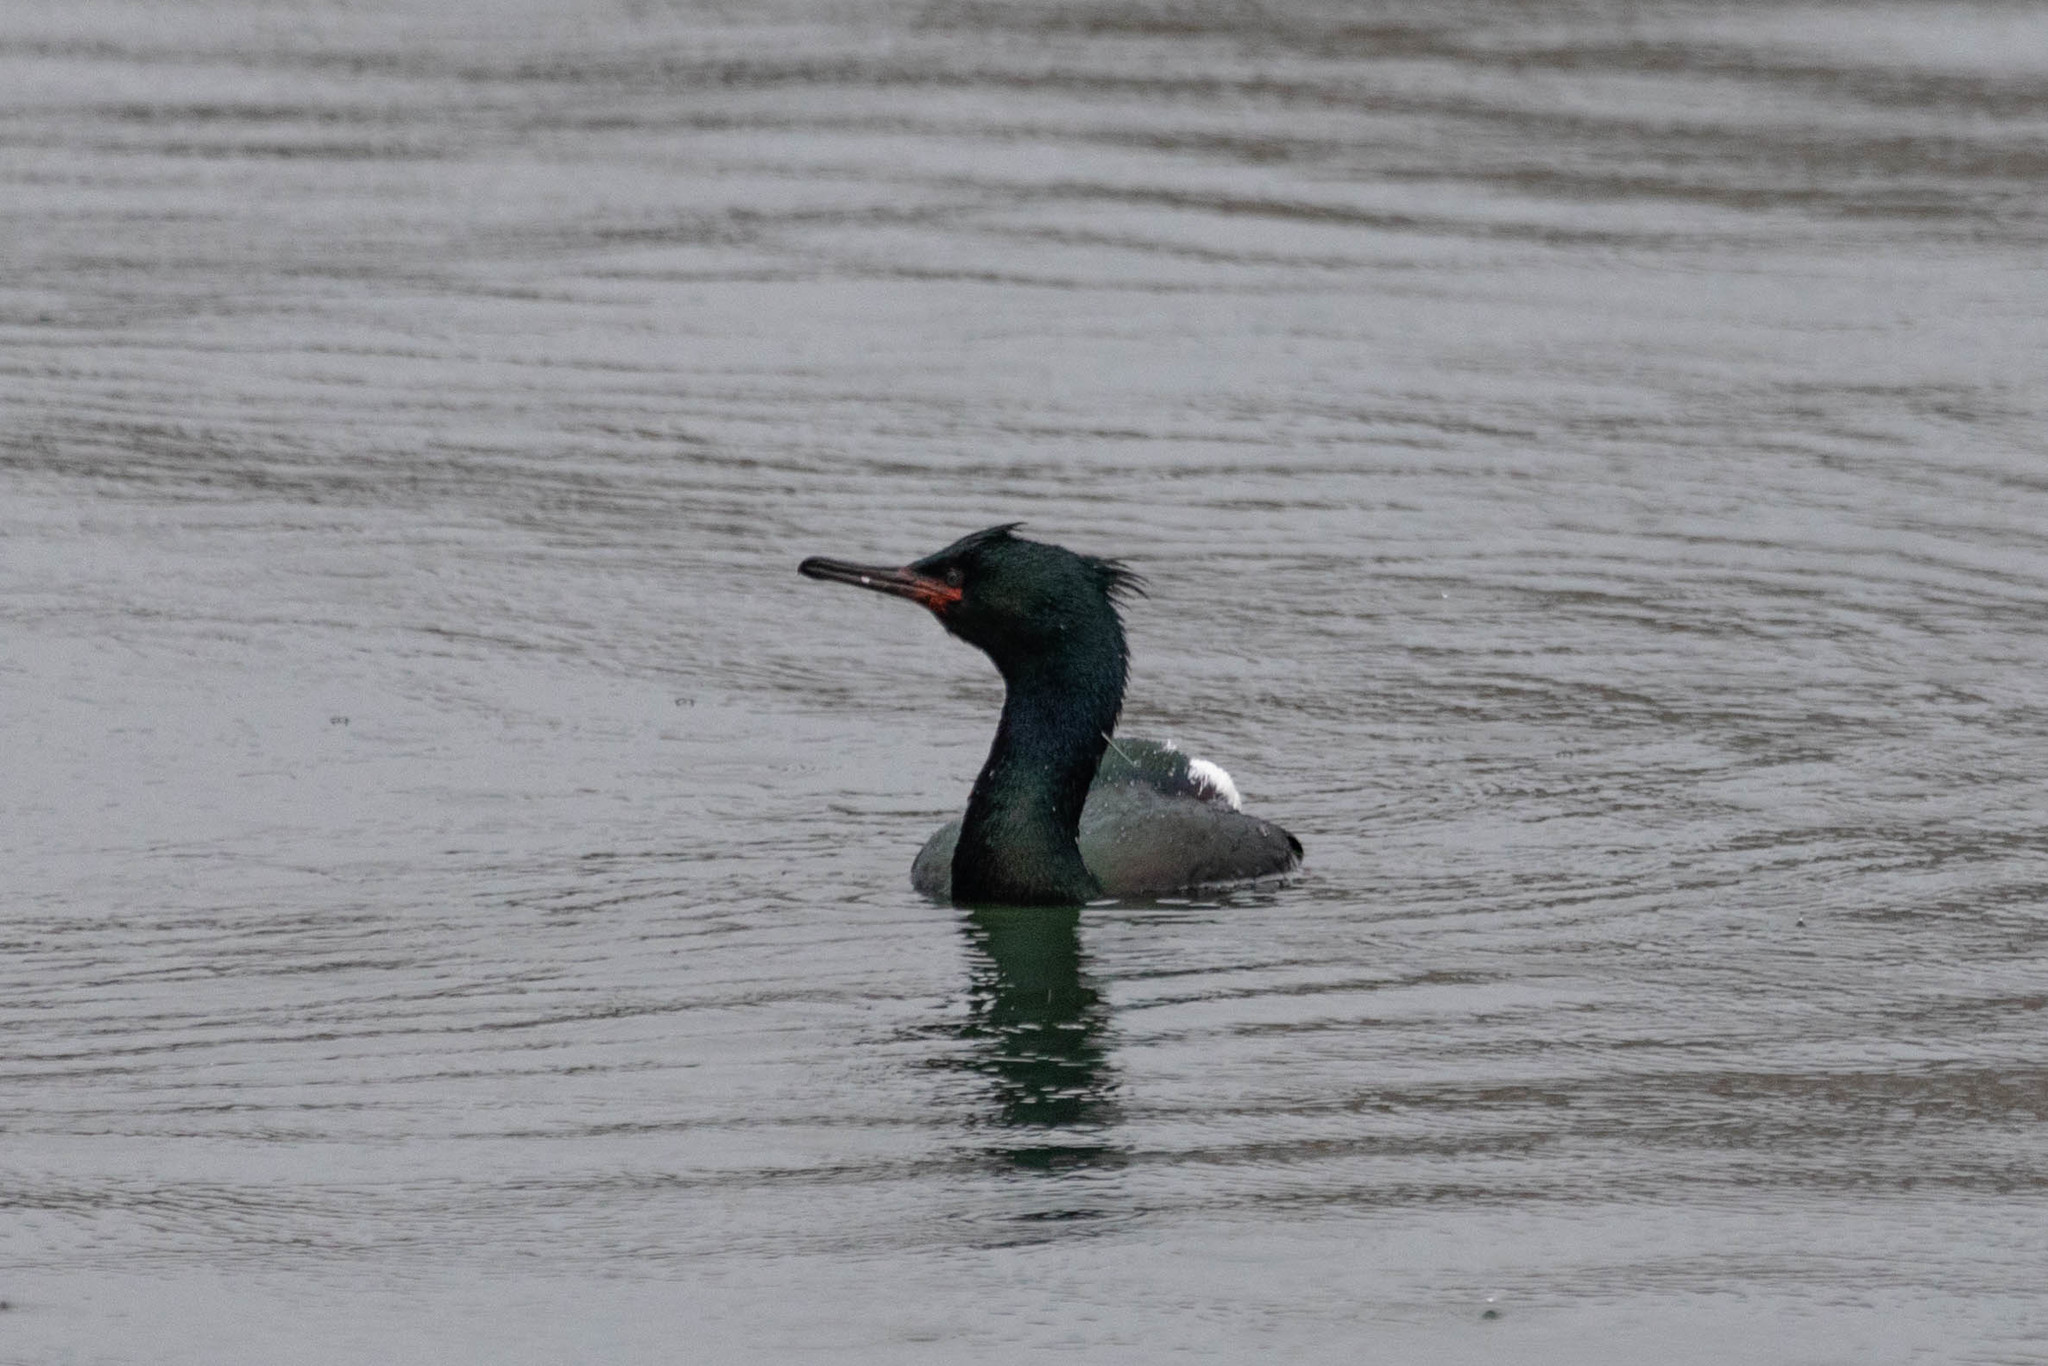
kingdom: Animalia
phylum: Chordata
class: Aves
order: Suliformes
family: Phalacrocoracidae
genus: Phalacrocorax
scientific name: Phalacrocorax pelagicus
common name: Pelagic cormorant
